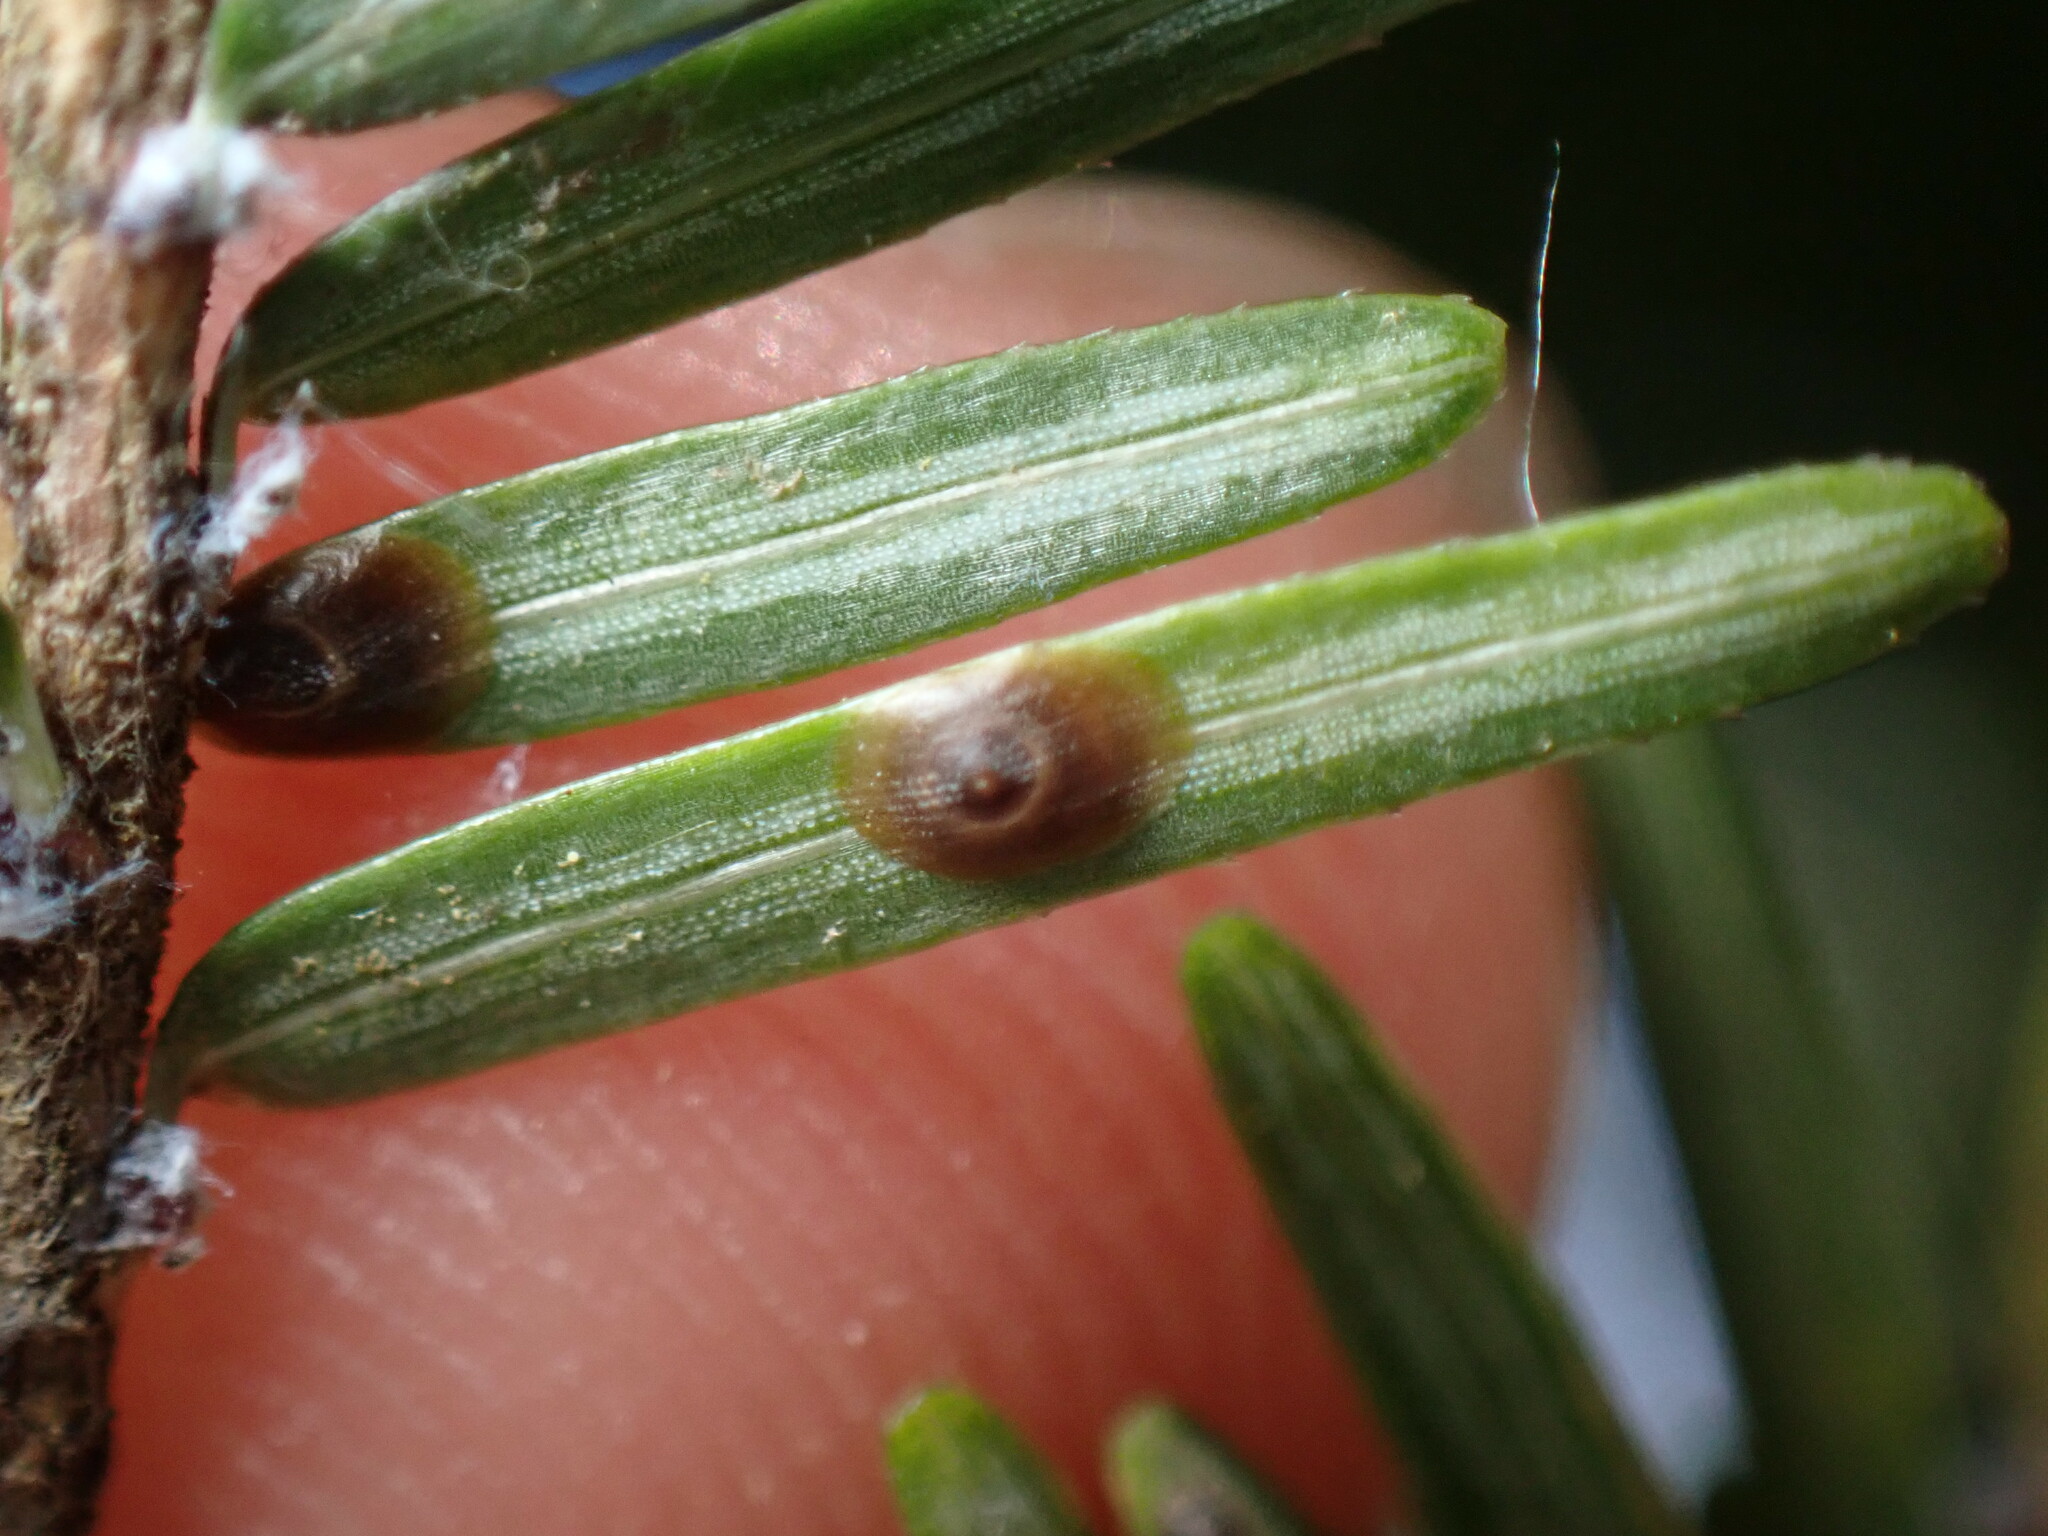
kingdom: Animalia
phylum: Arthropoda
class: Insecta
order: Hemiptera
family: Diaspididae
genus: Dynaspidiotus
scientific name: Dynaspidiotus tsugae
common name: Shortneedle evergreen scale
